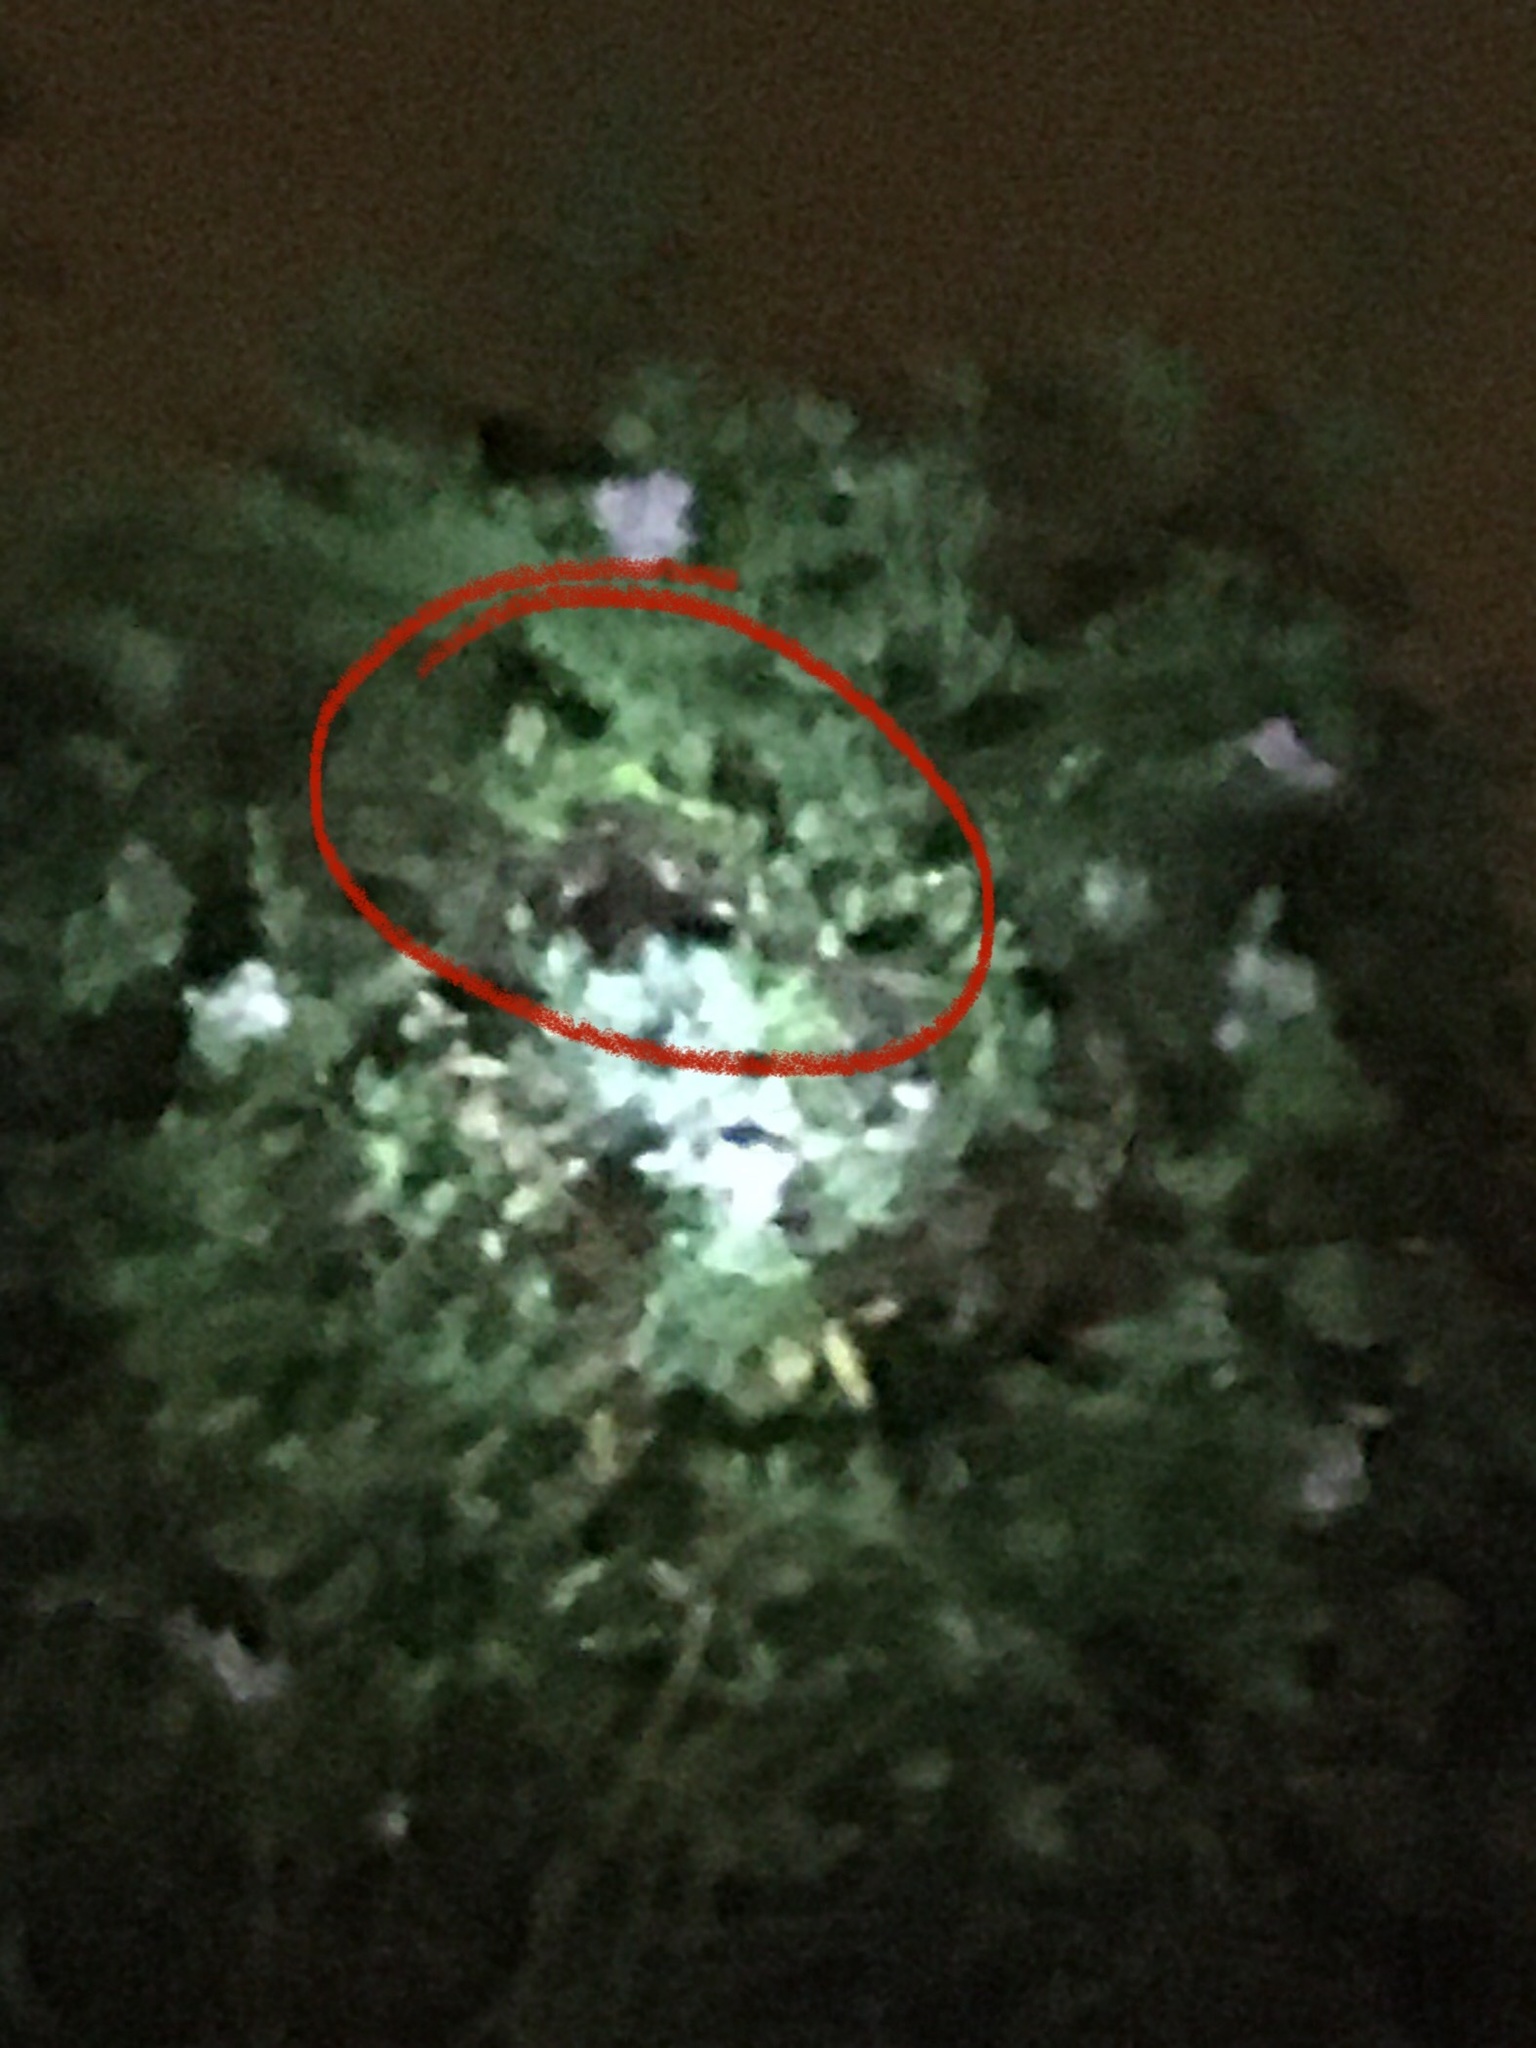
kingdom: Animalia
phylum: Chordata
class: Squamata
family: Chamaeleonidae
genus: Bradypodion
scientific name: Bradypodion pumilum
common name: Cape dwarf chameleon
